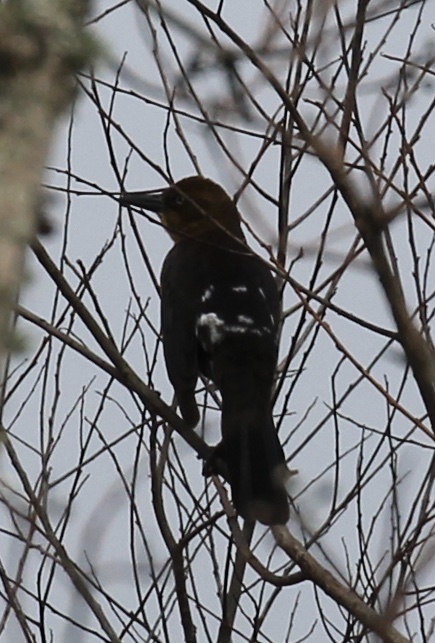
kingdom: Animalia
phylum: Chordata
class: Aves
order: Passeriformes
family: Icteridae
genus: Quiscalus
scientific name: Quiscalus major
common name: Boat-tailed grackle
